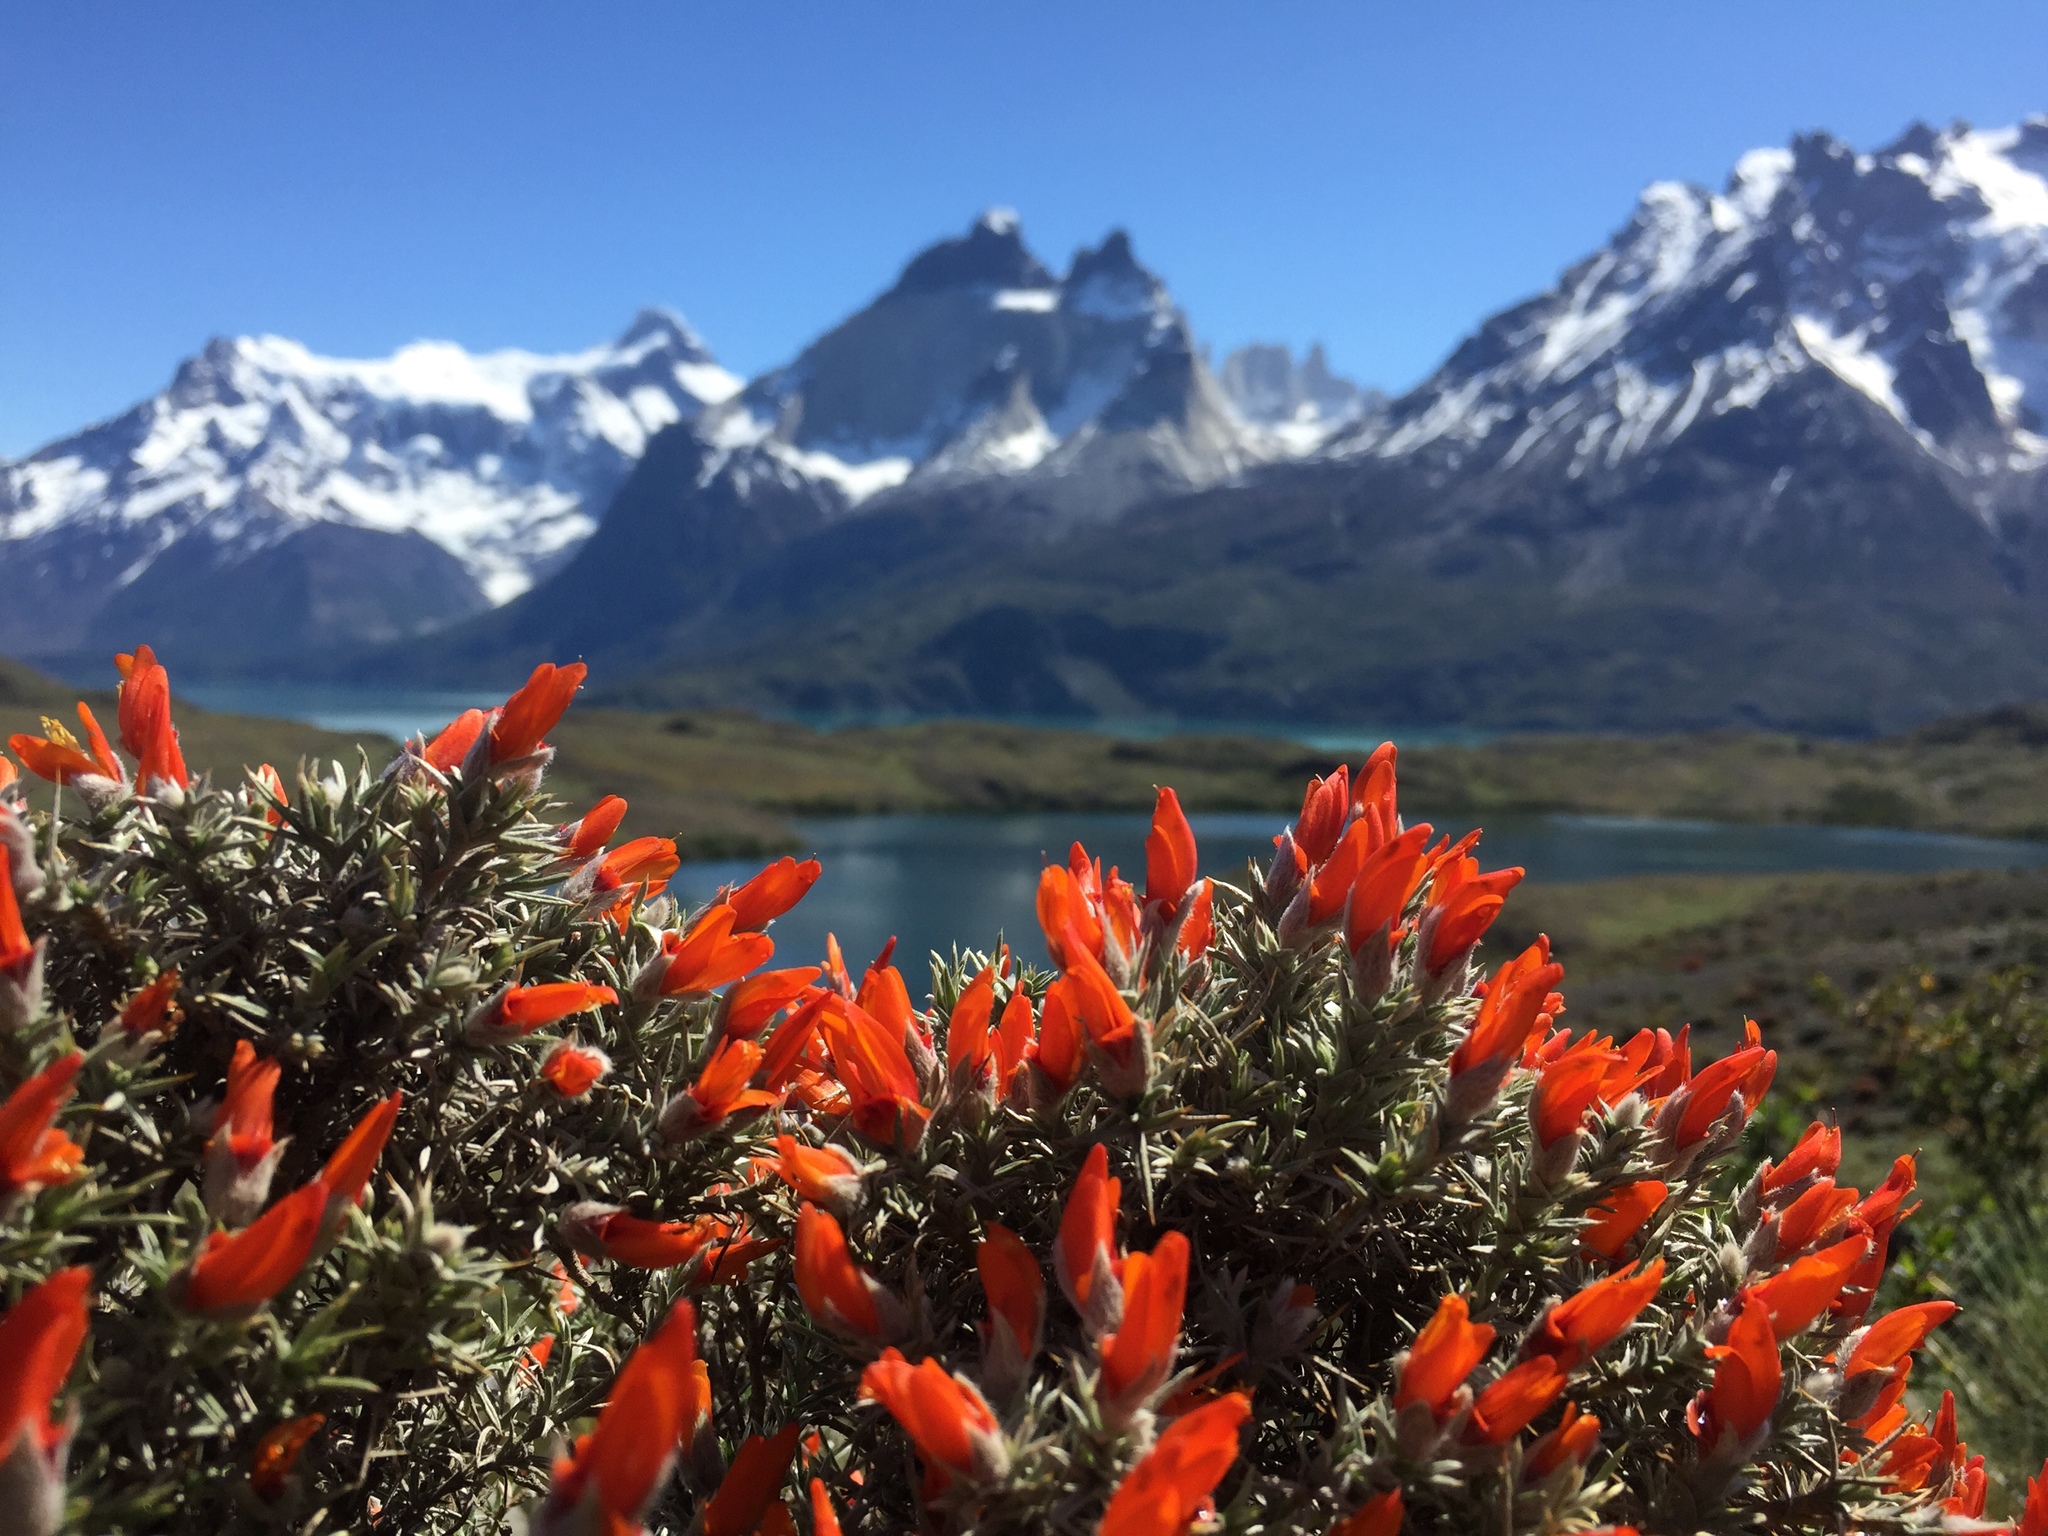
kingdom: Plantae
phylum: Tracheophyta
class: Magnoliopsida
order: Fabales
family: Fabaceae
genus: Anarthrophyllum
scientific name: Anarthrophyllum desideratum
